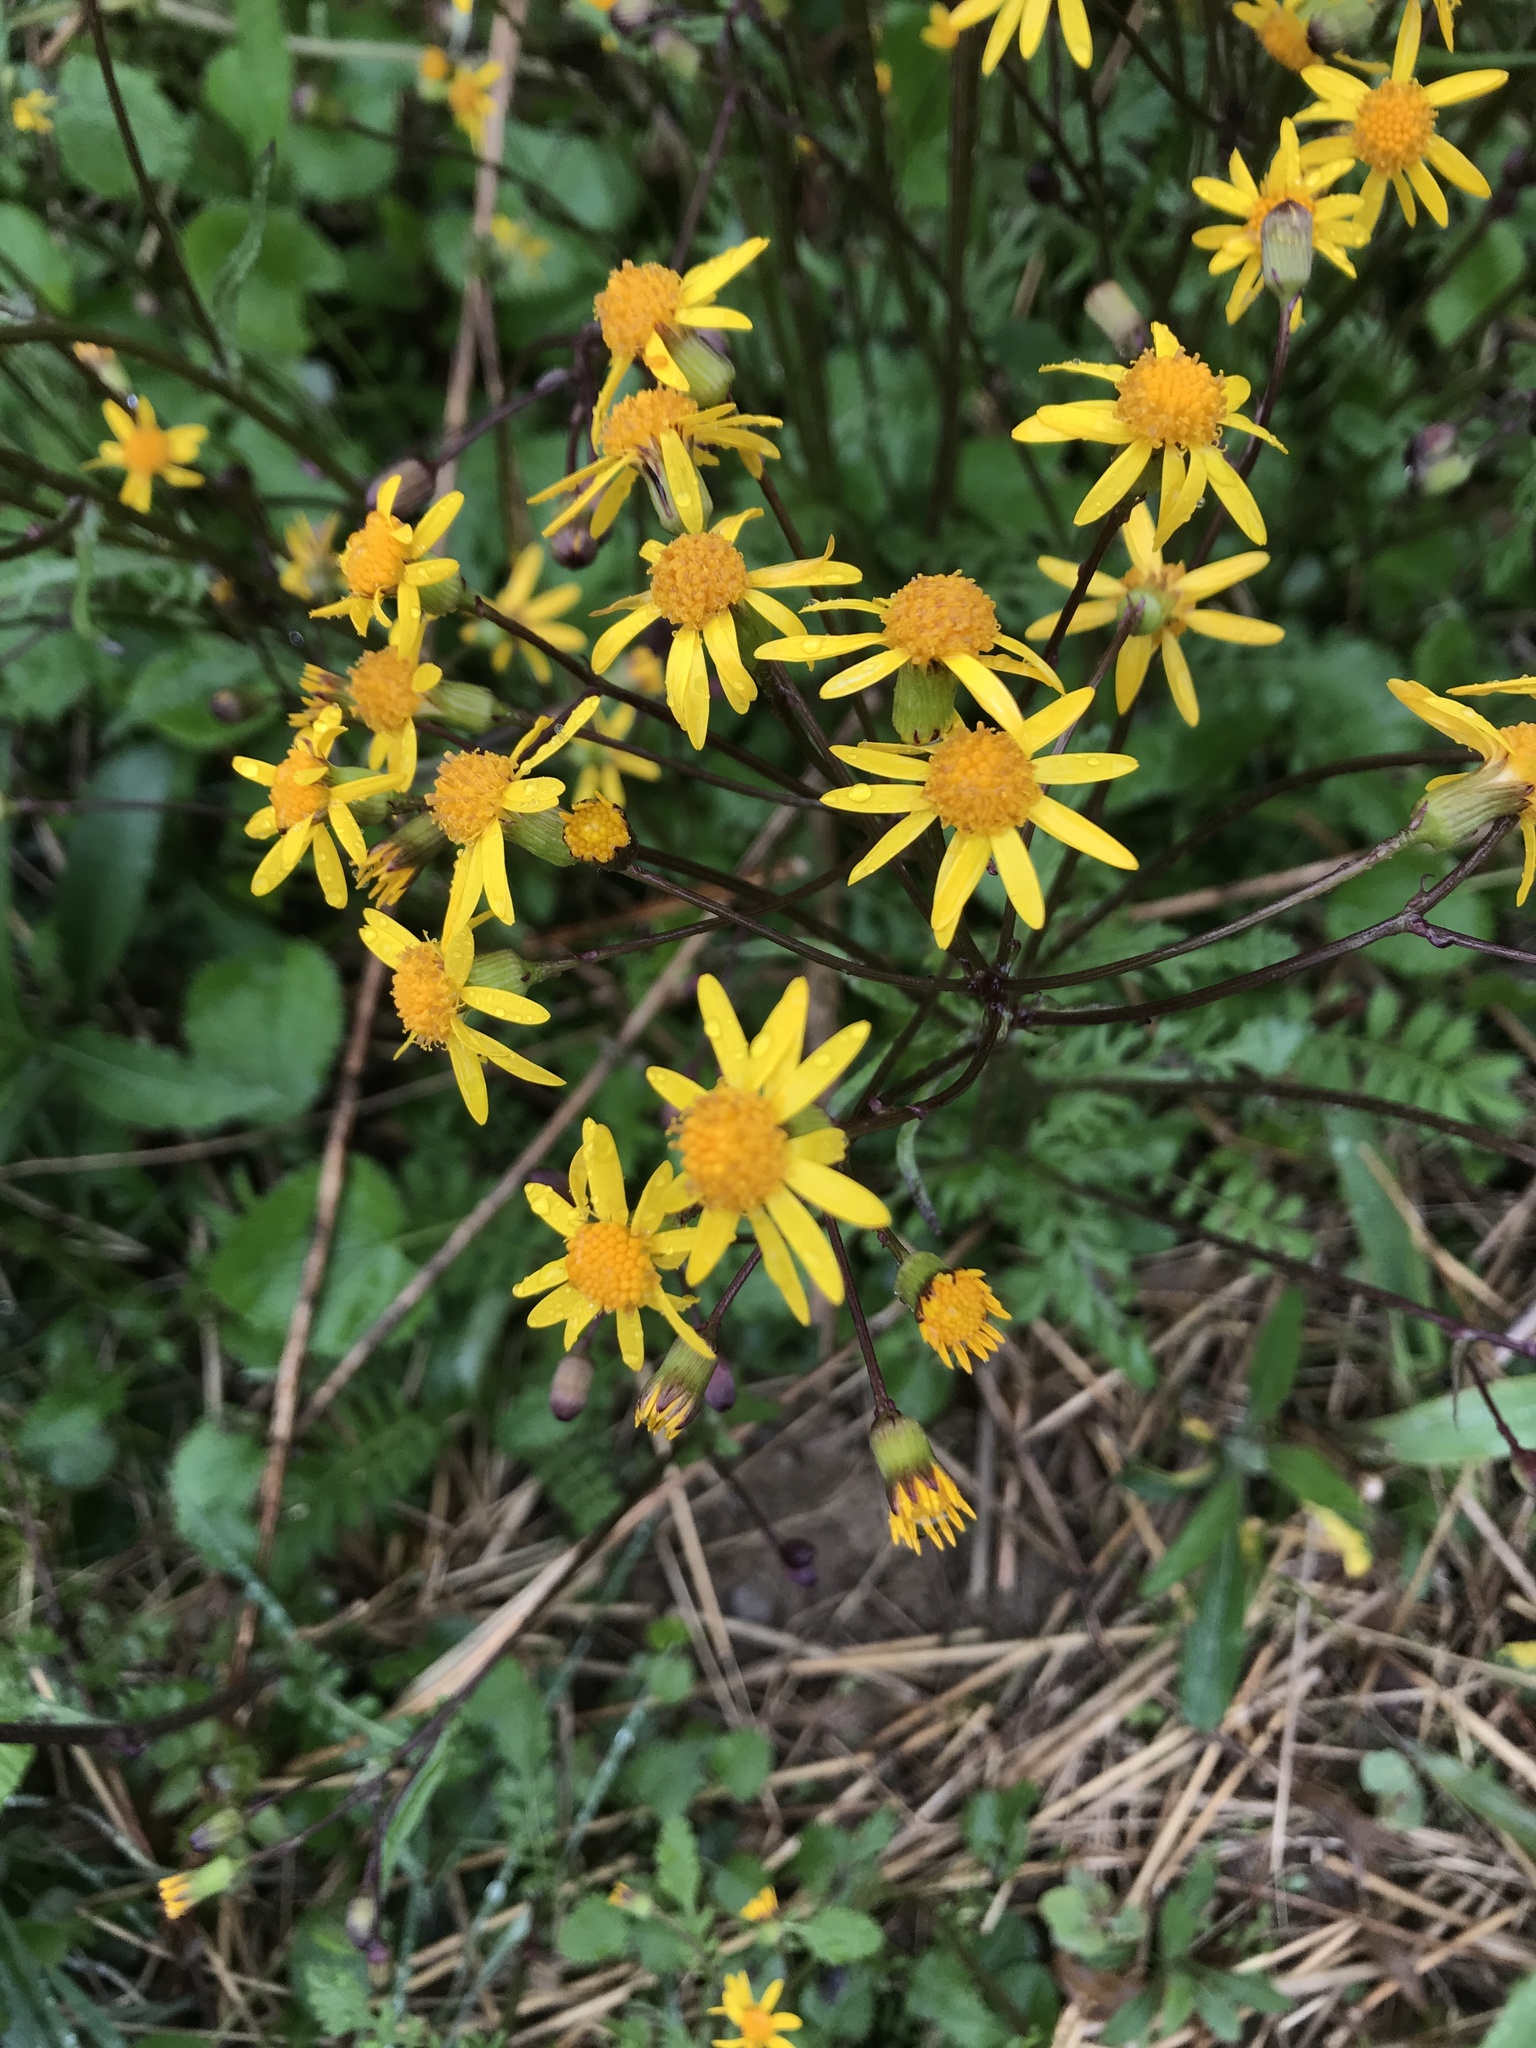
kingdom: Plantae
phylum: Tracheophyta
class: Magnoliopsida
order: Asterales
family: Asteraceae
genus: Packera
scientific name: Packera aurea
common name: Golden groundsel
